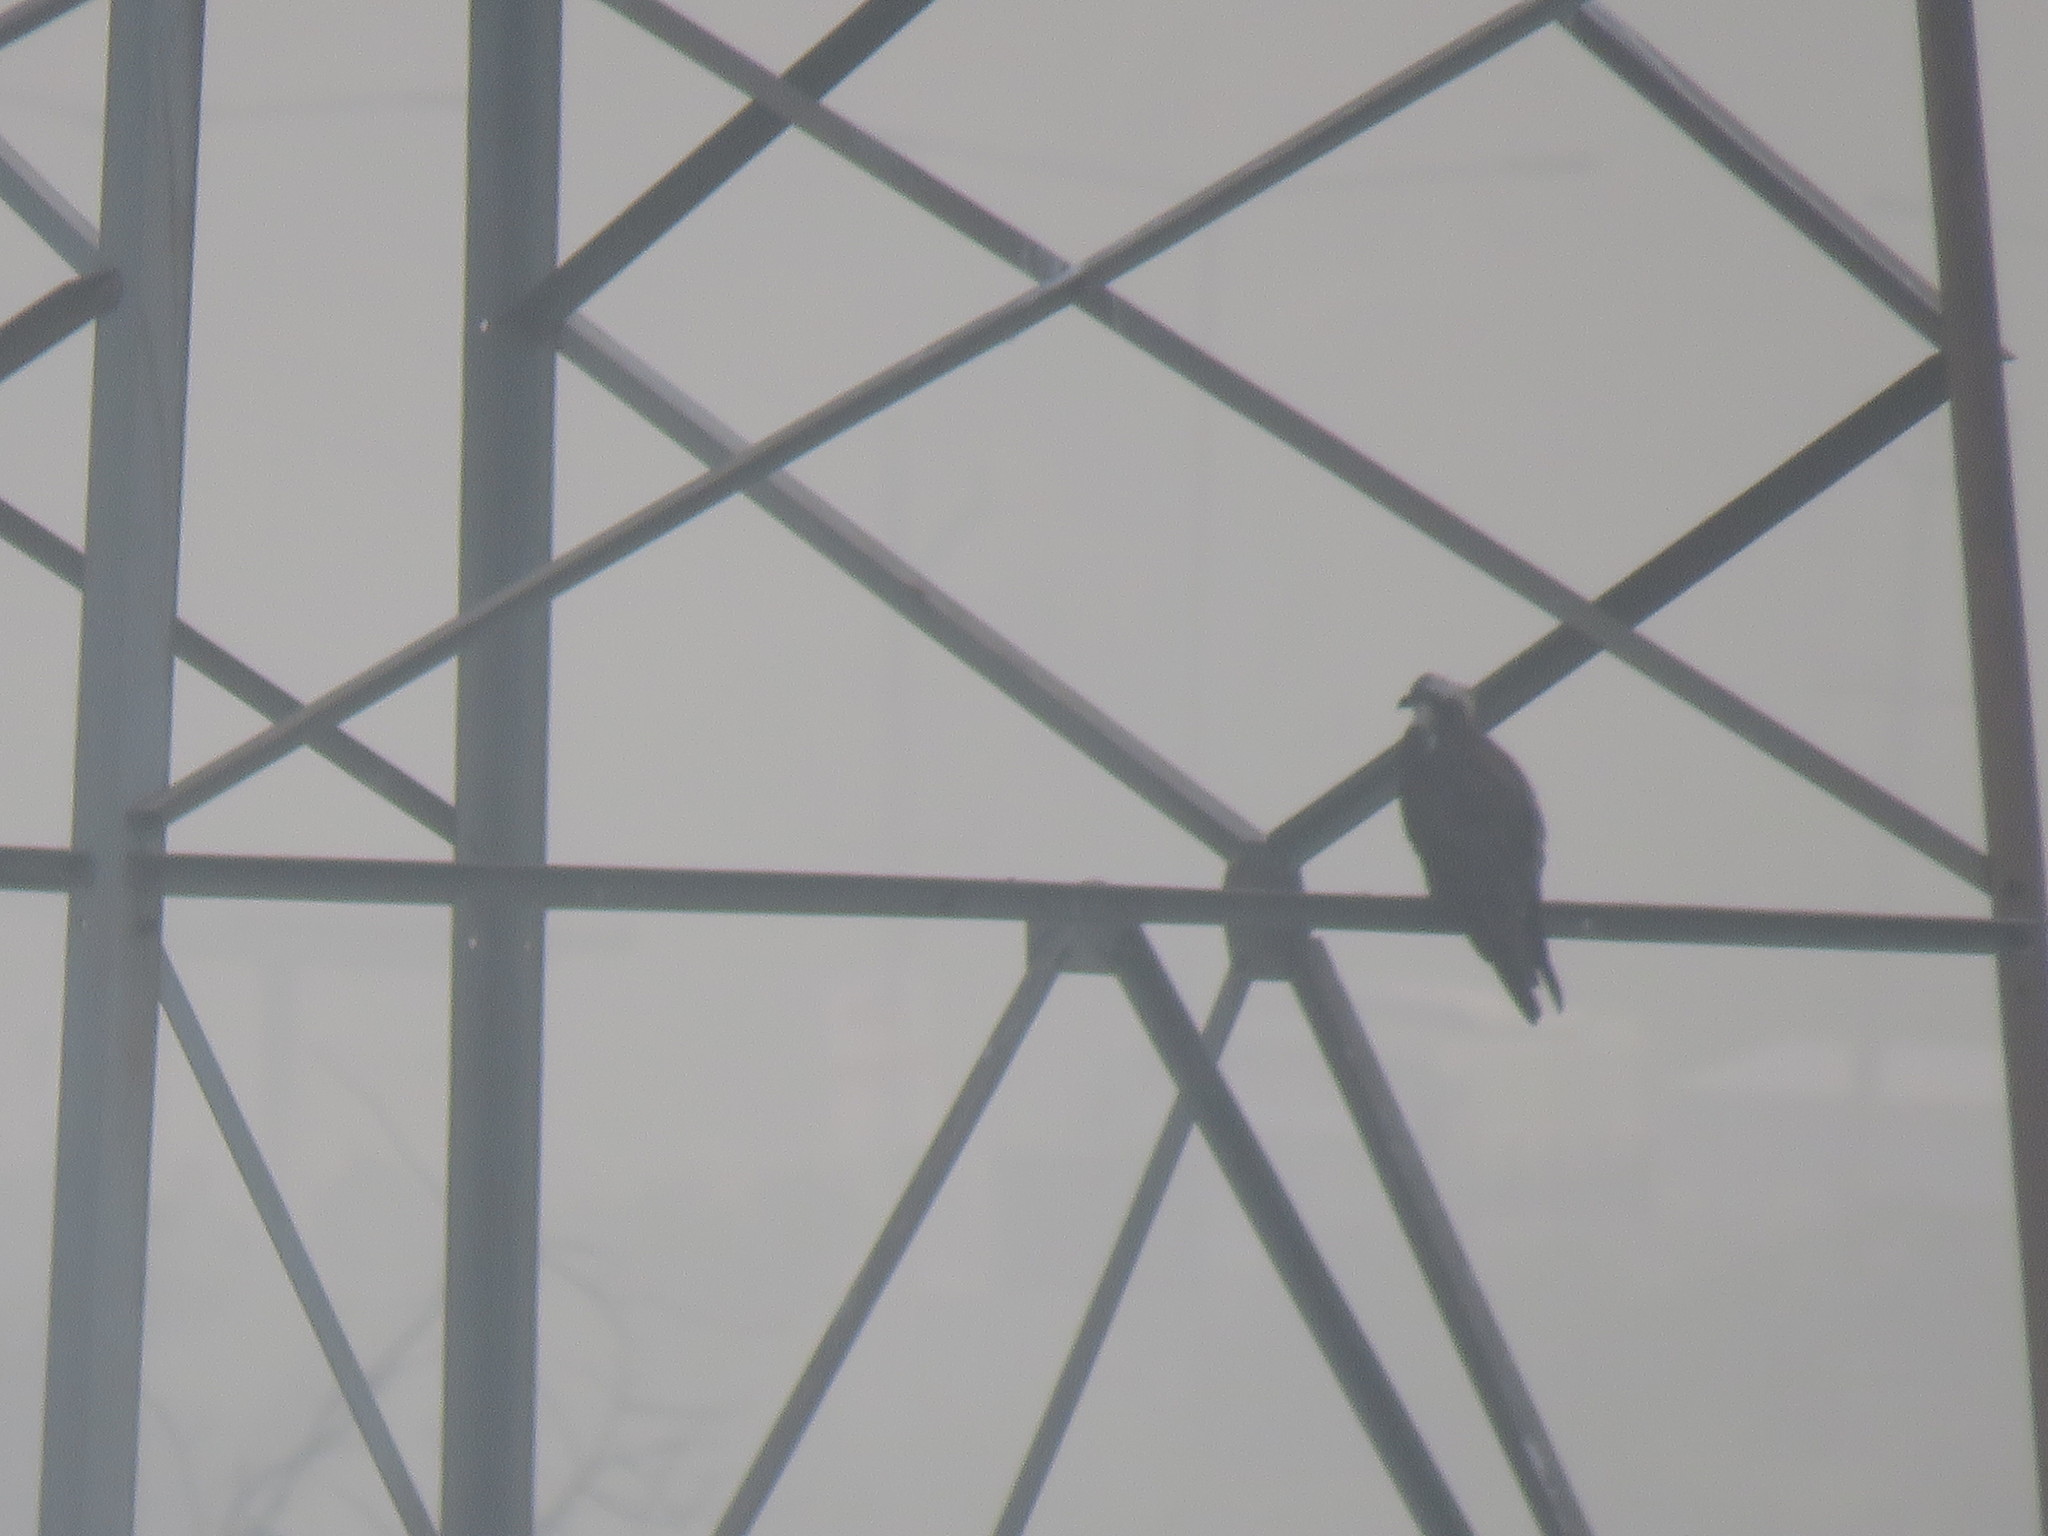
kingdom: Animalia
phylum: Chordata
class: Aves
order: Accipitriformes
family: Pandionidae
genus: Pandion
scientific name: Pandion haliaetus
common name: Osprey
